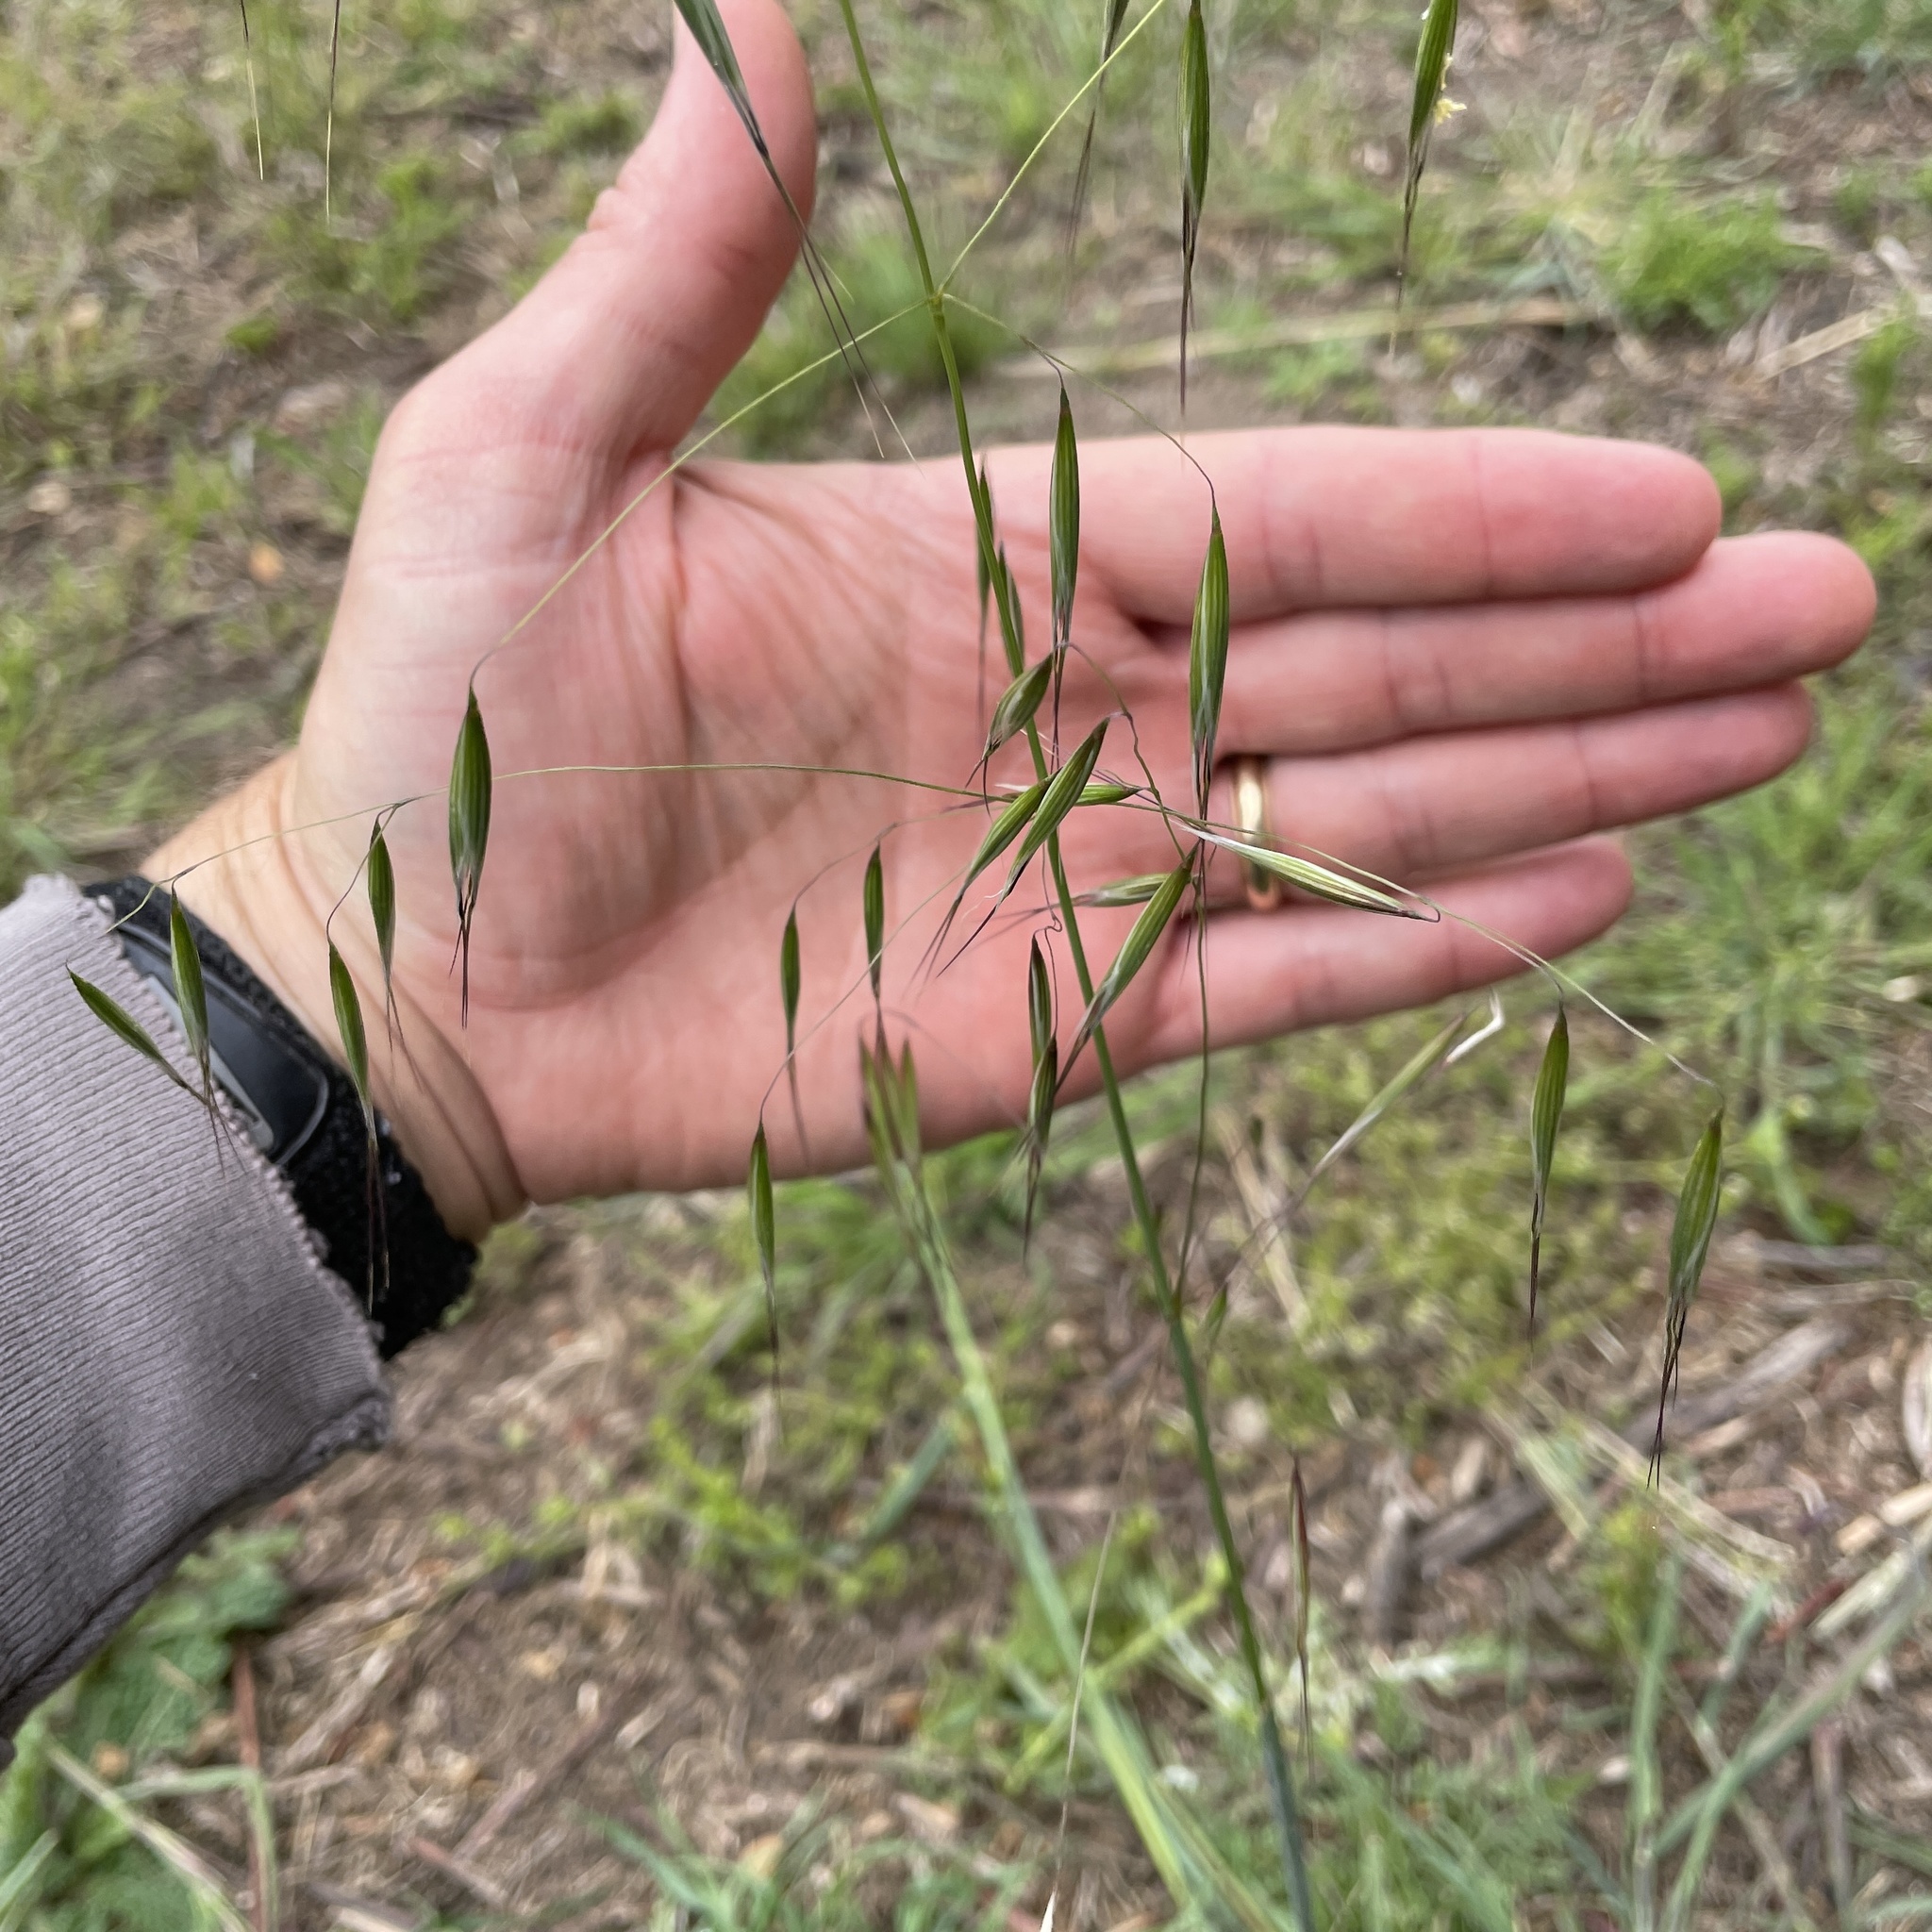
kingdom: Plantae
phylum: Tracheophyta
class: Liliopsida
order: Poales
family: Poaceae
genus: Avena
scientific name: Avena fatua
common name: Wild oat
